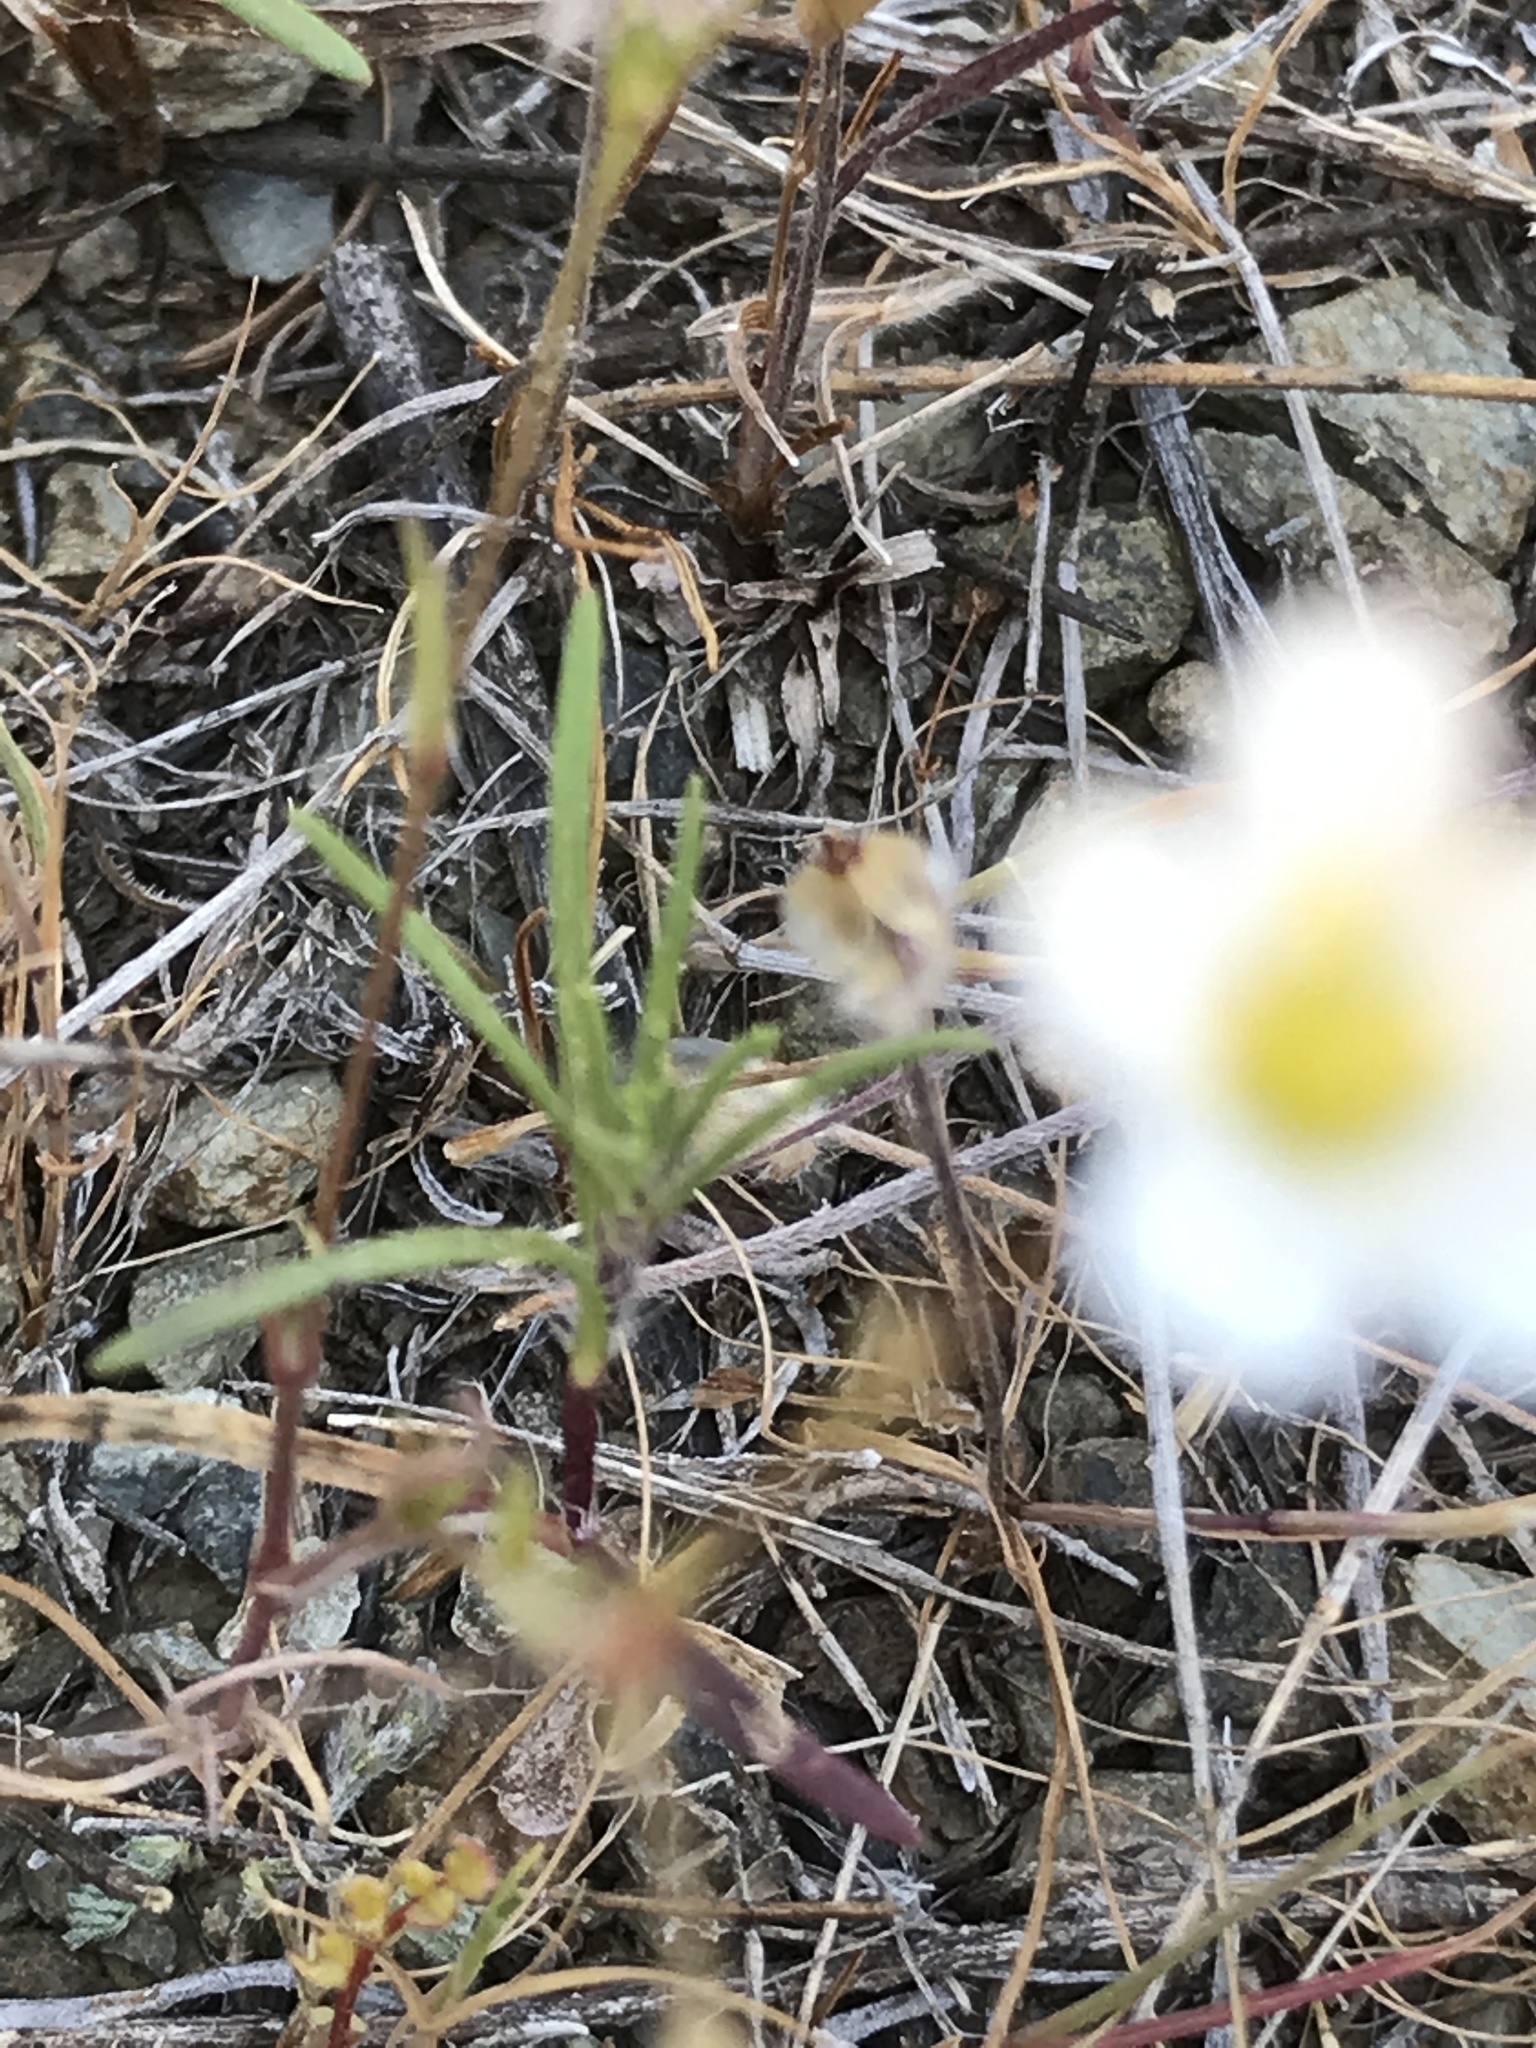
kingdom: Plantae
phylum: Tracheophyta
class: Magnoliopsida
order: Caryophyllales
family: Caryophyllaceae
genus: Sabulina
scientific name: Sabulina douglasii
